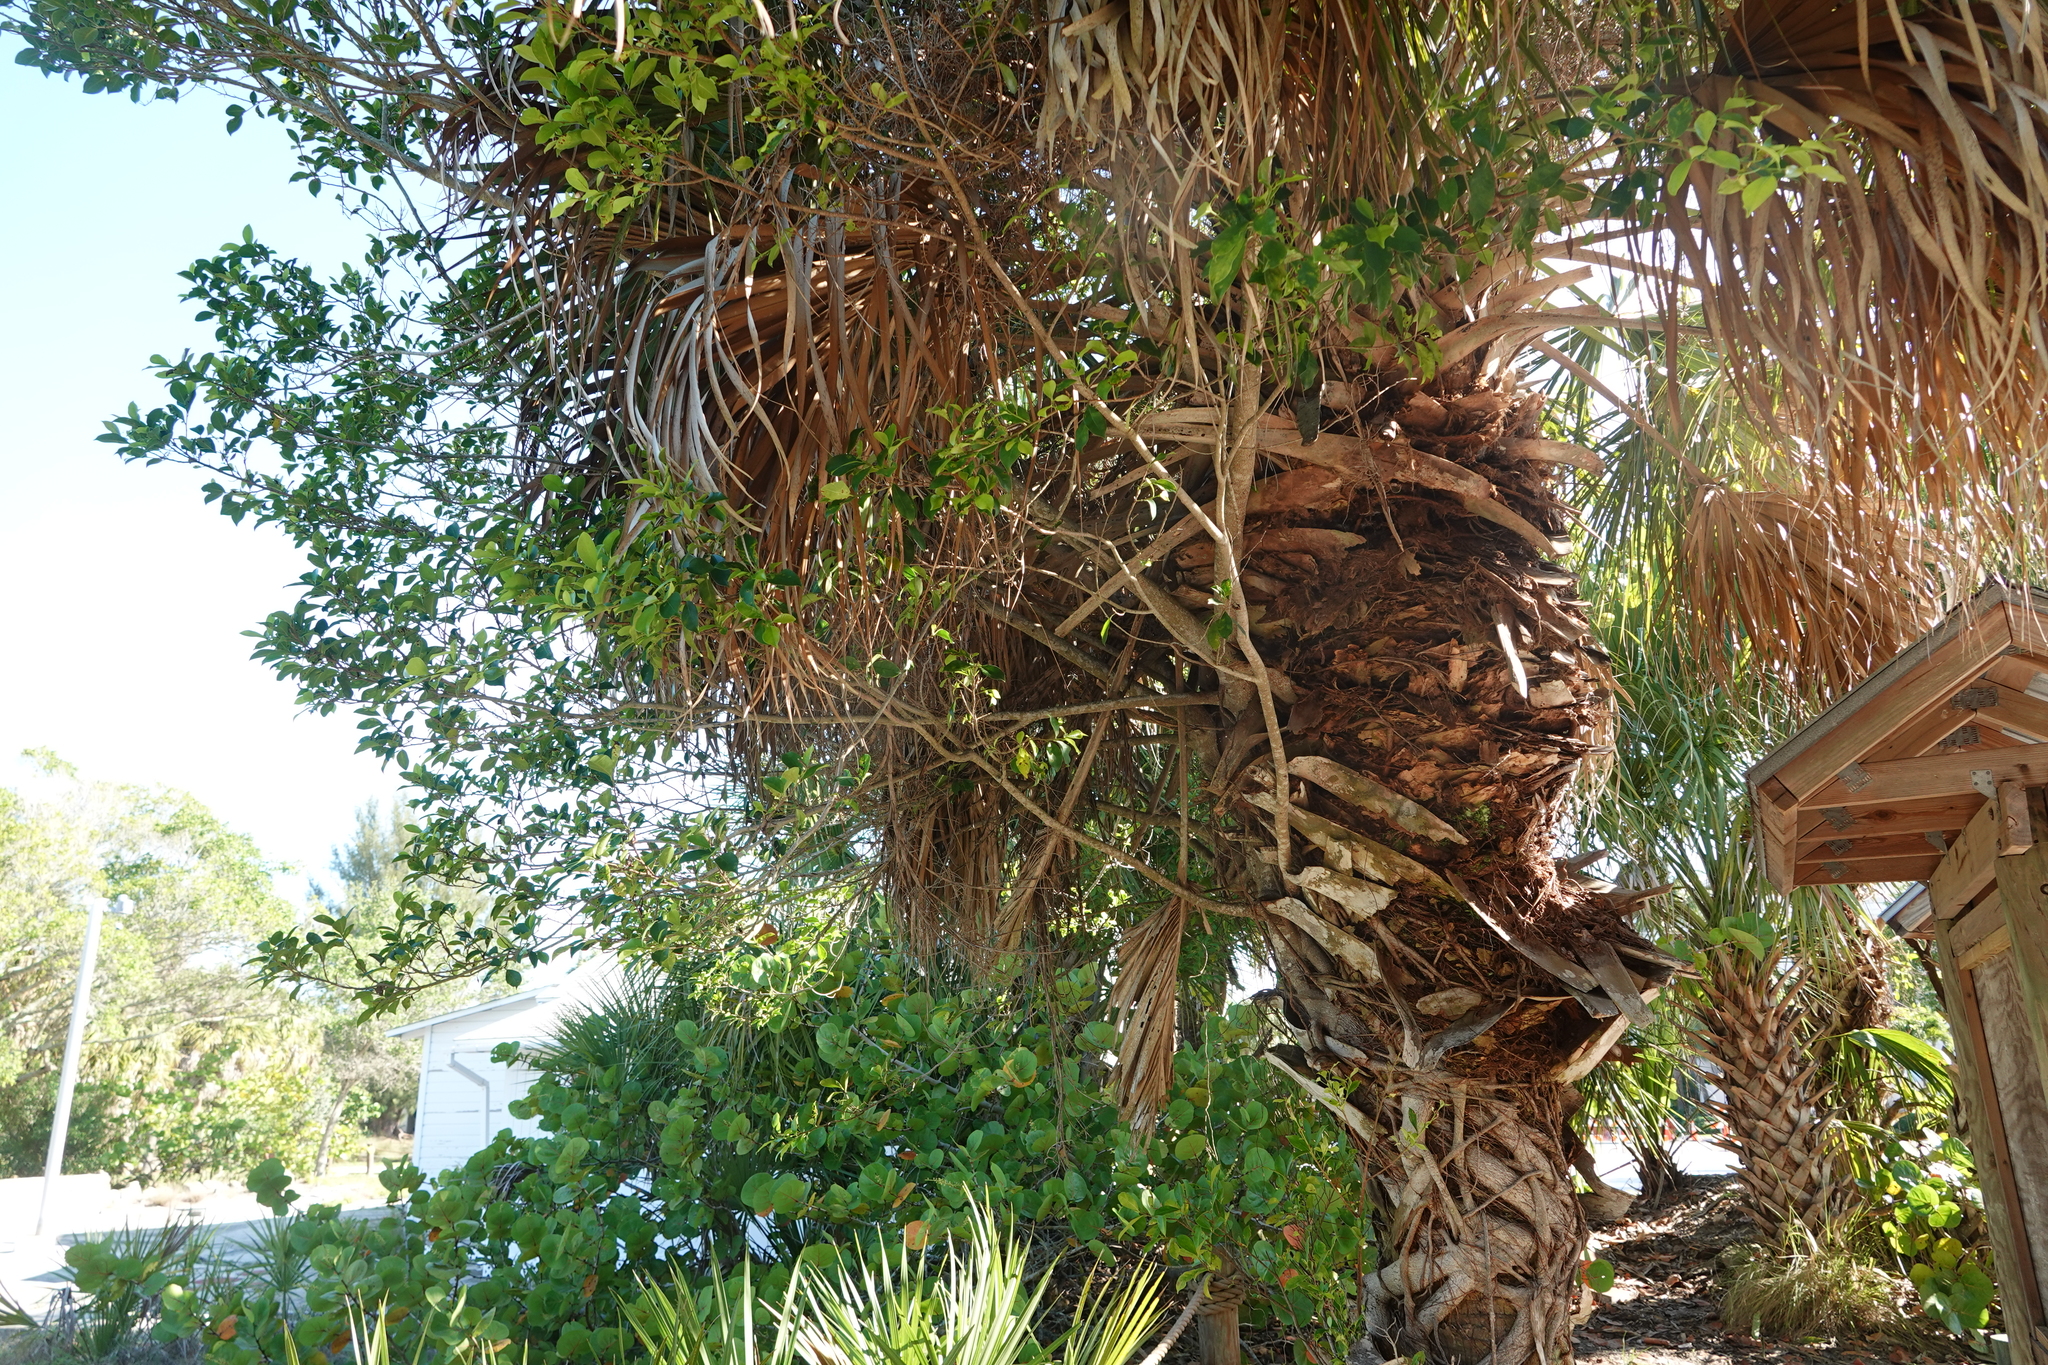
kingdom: Plantae
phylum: Tracheophyta
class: Magnoliopsida
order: Rosales
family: Moraceae
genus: Ficus
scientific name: Ficus microcarpa
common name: Chinese banyan
